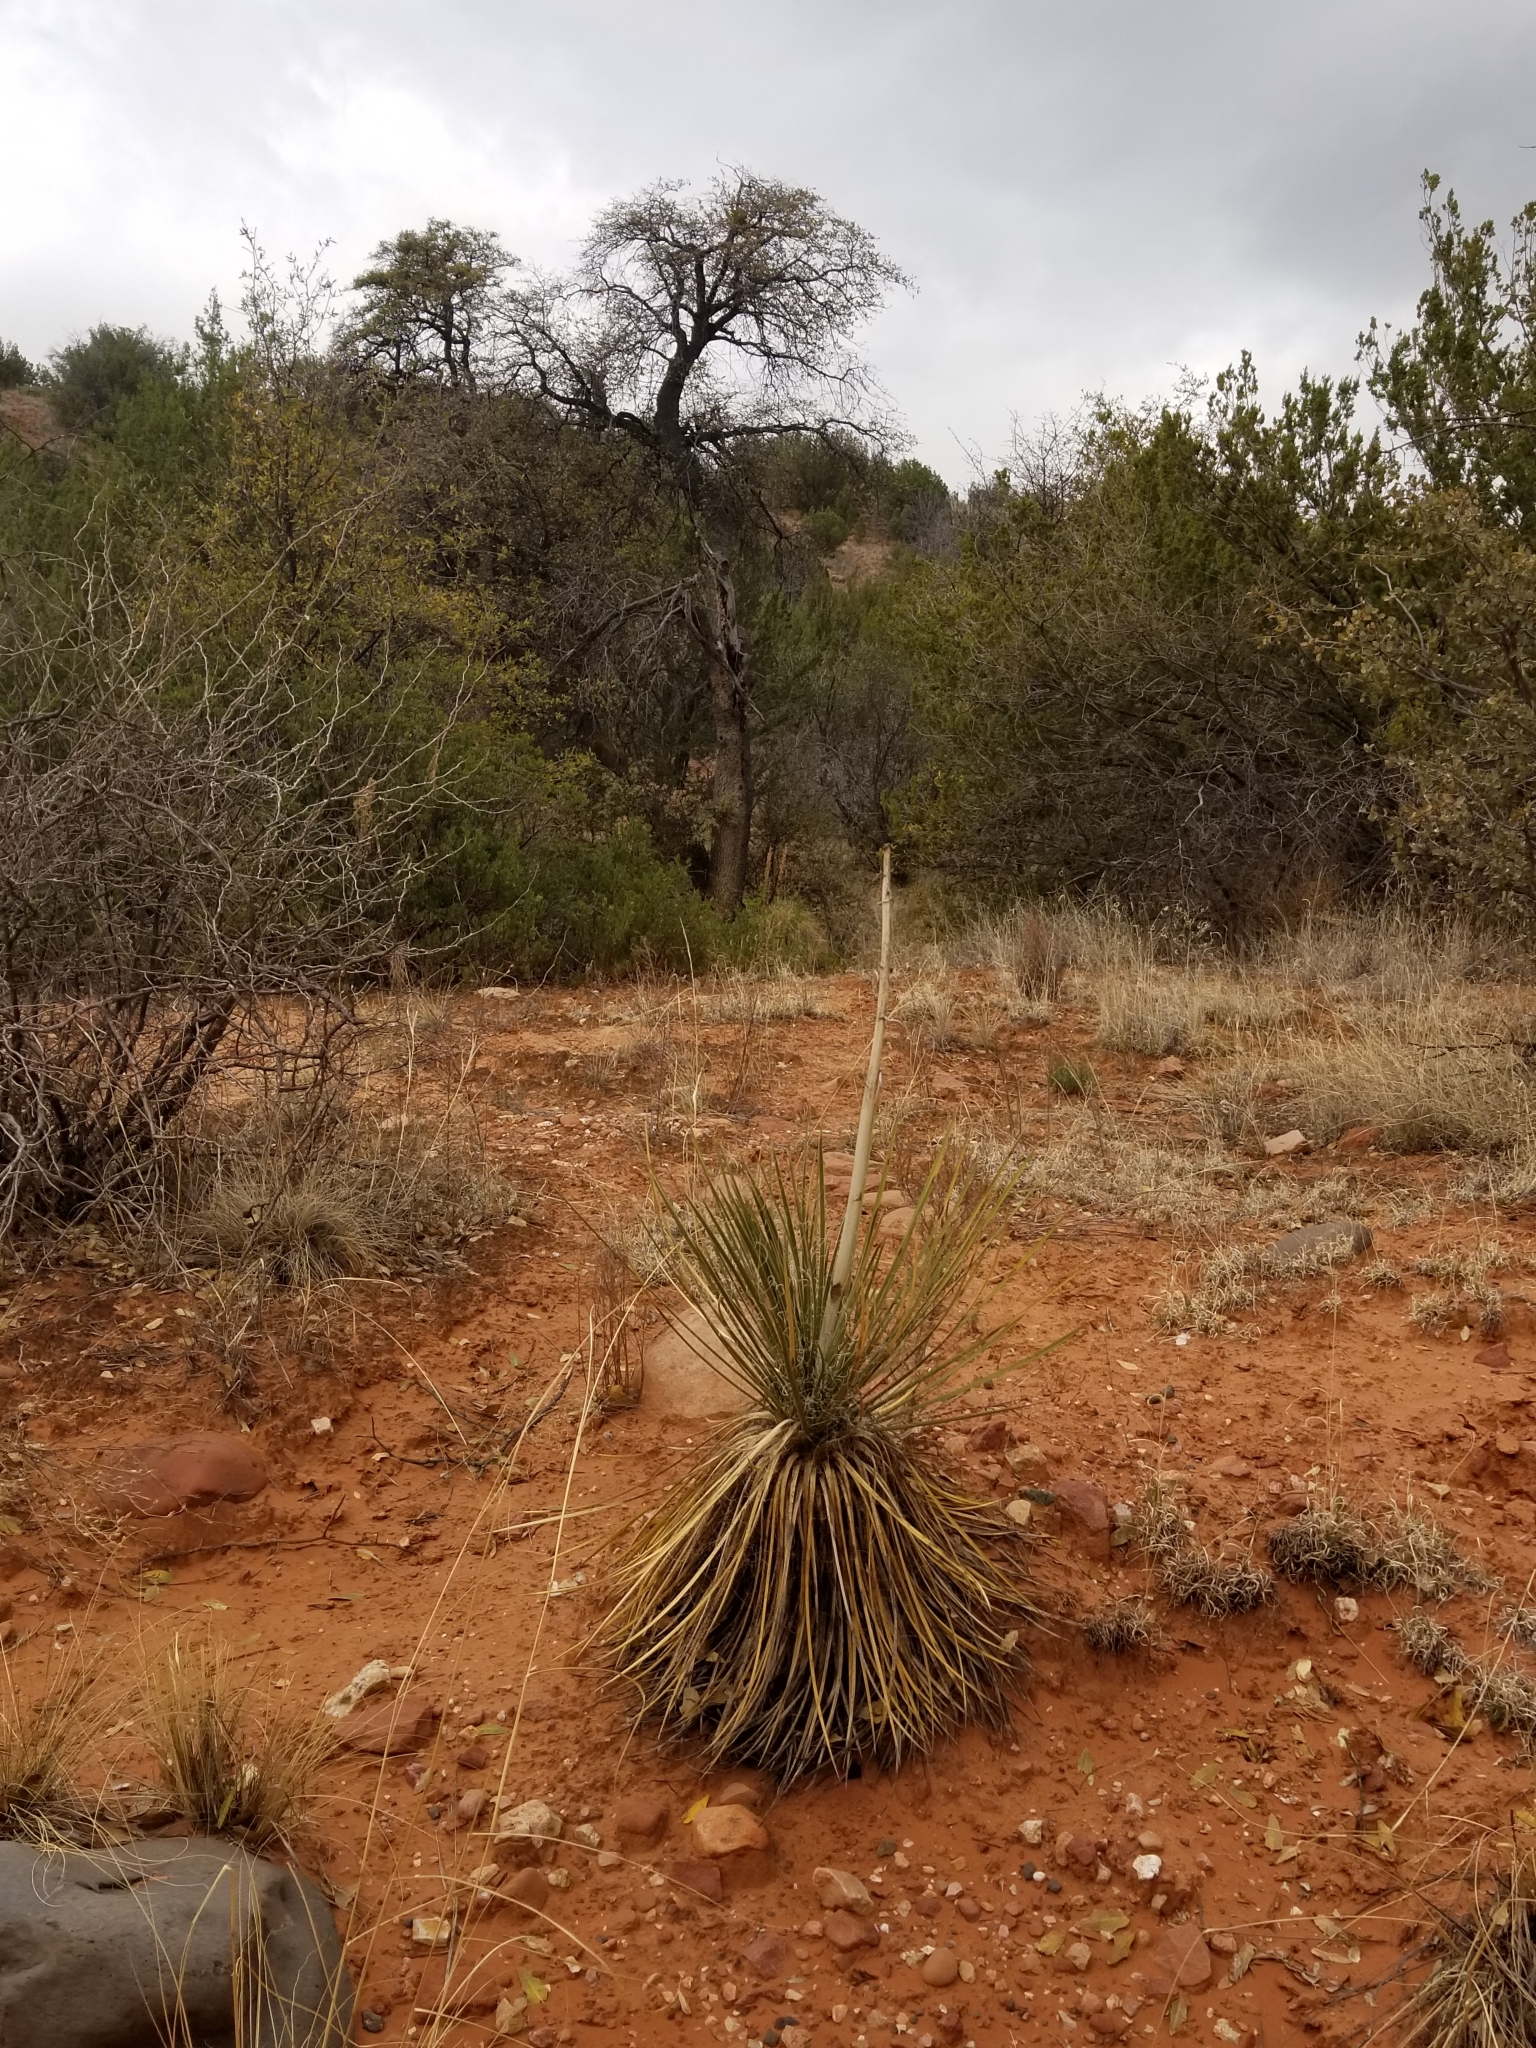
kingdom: Plantae
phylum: Tracheophyta
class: Liliopsida
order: Asparagales
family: Asparagaceae
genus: Yucca
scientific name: Yucca elata
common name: Palmella
